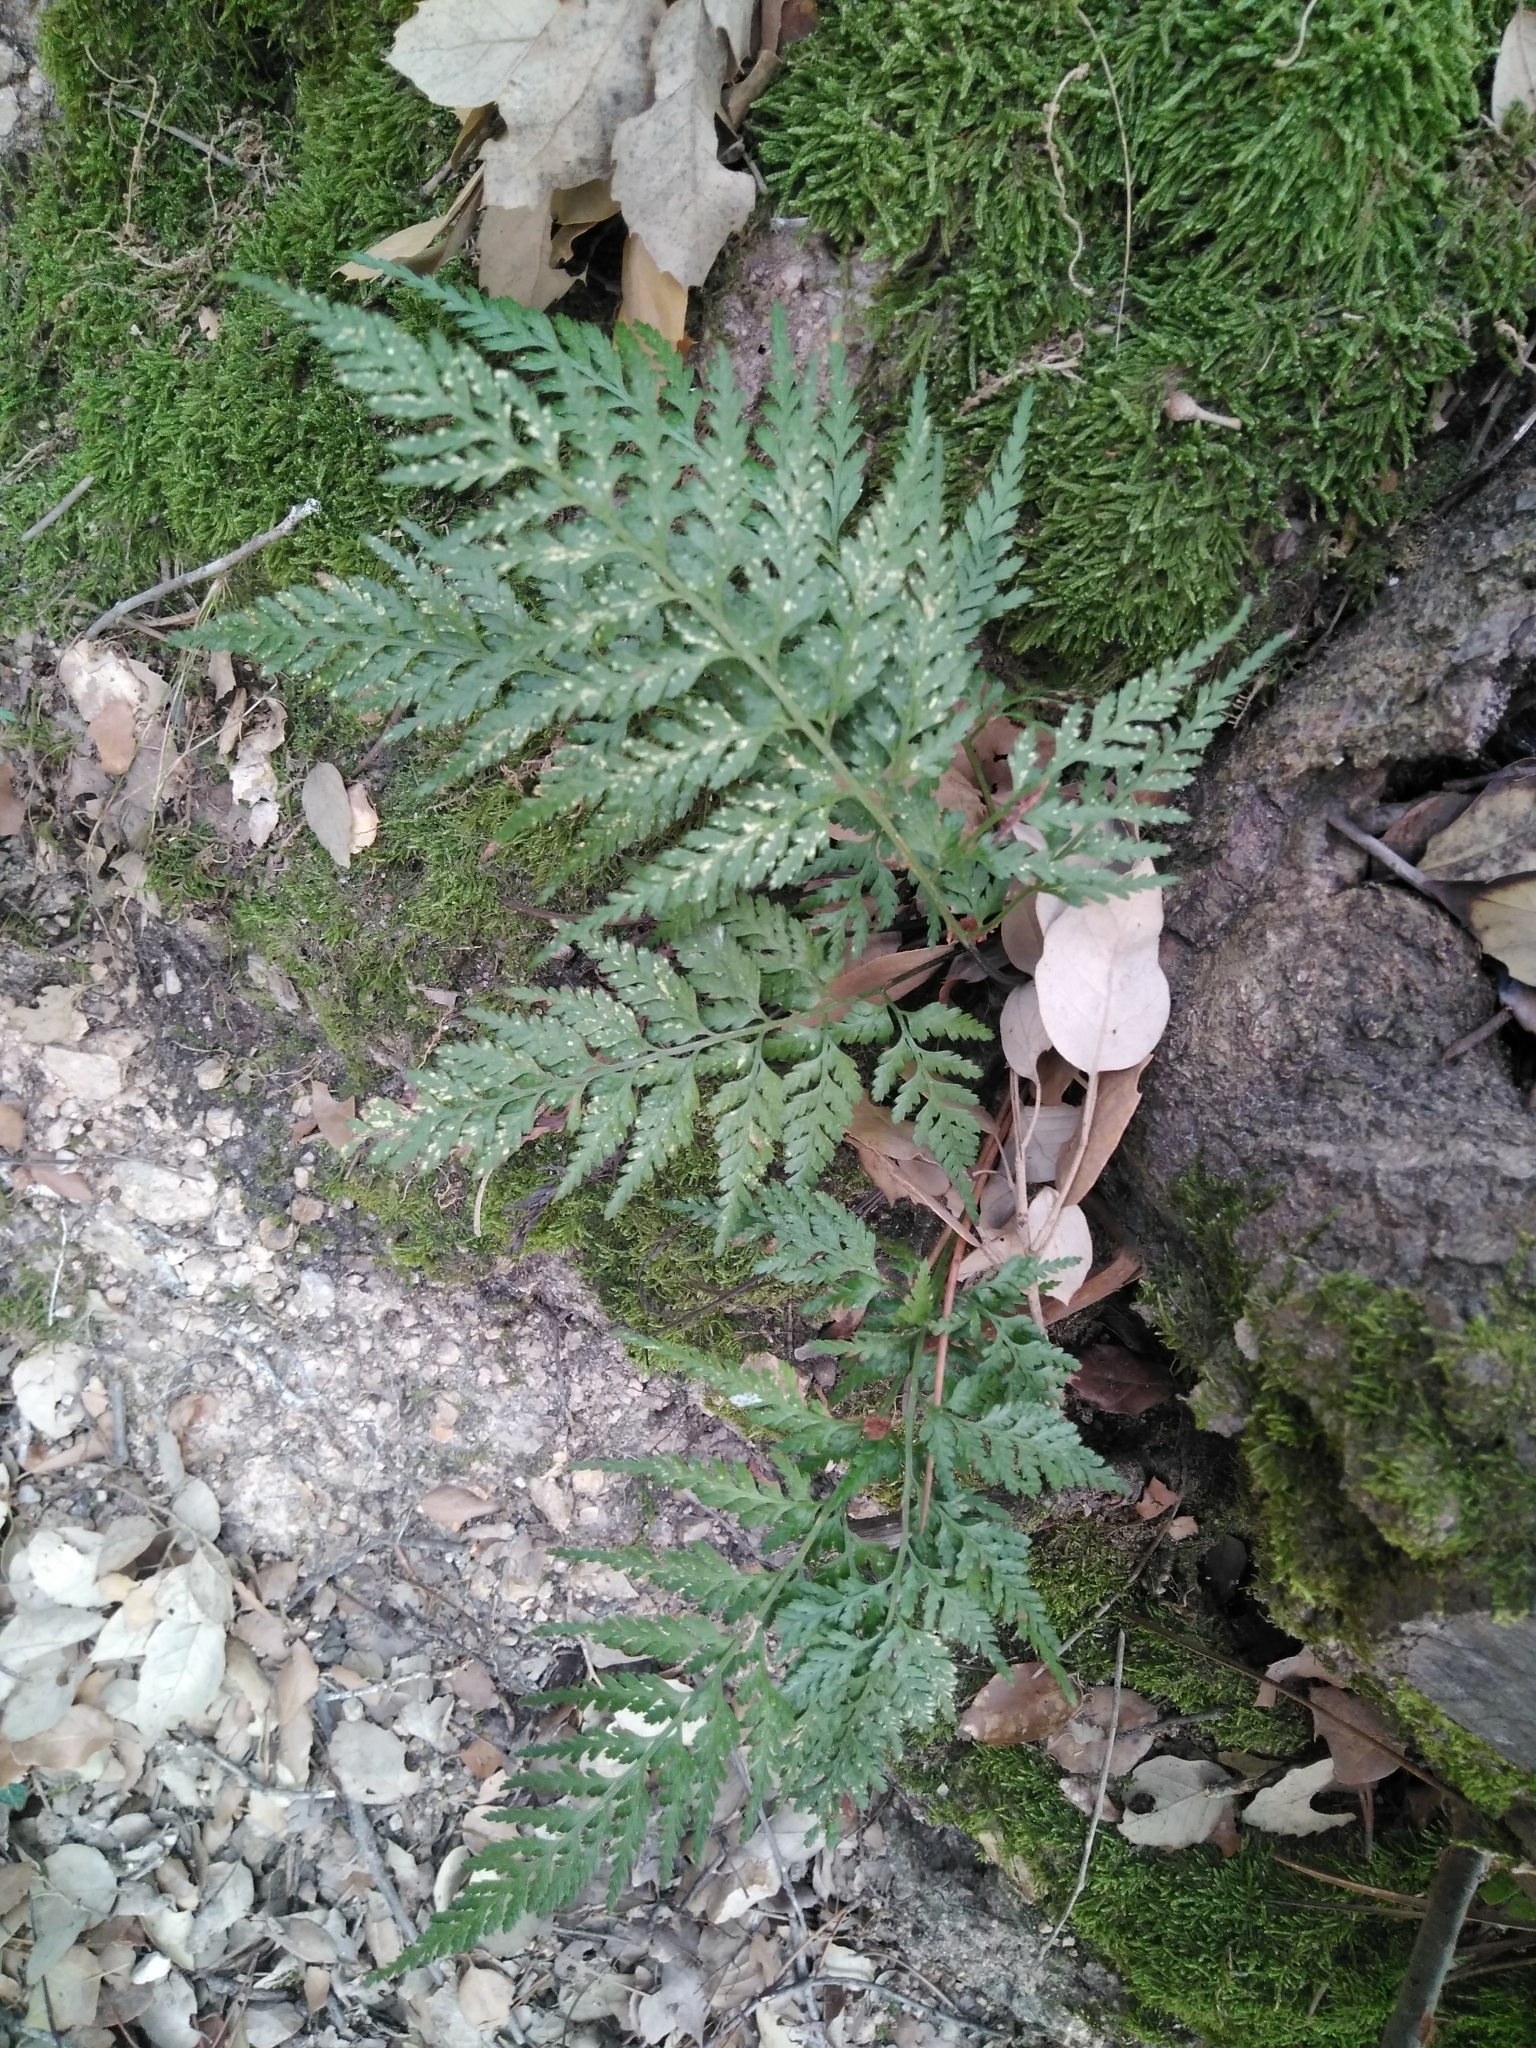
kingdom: Plantae
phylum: Tracheophyta
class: Polypodiopsida
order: Polypodiales
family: Aspleniaceae
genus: Asplenium
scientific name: Asplenium onopteris
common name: Irish spleenwort
